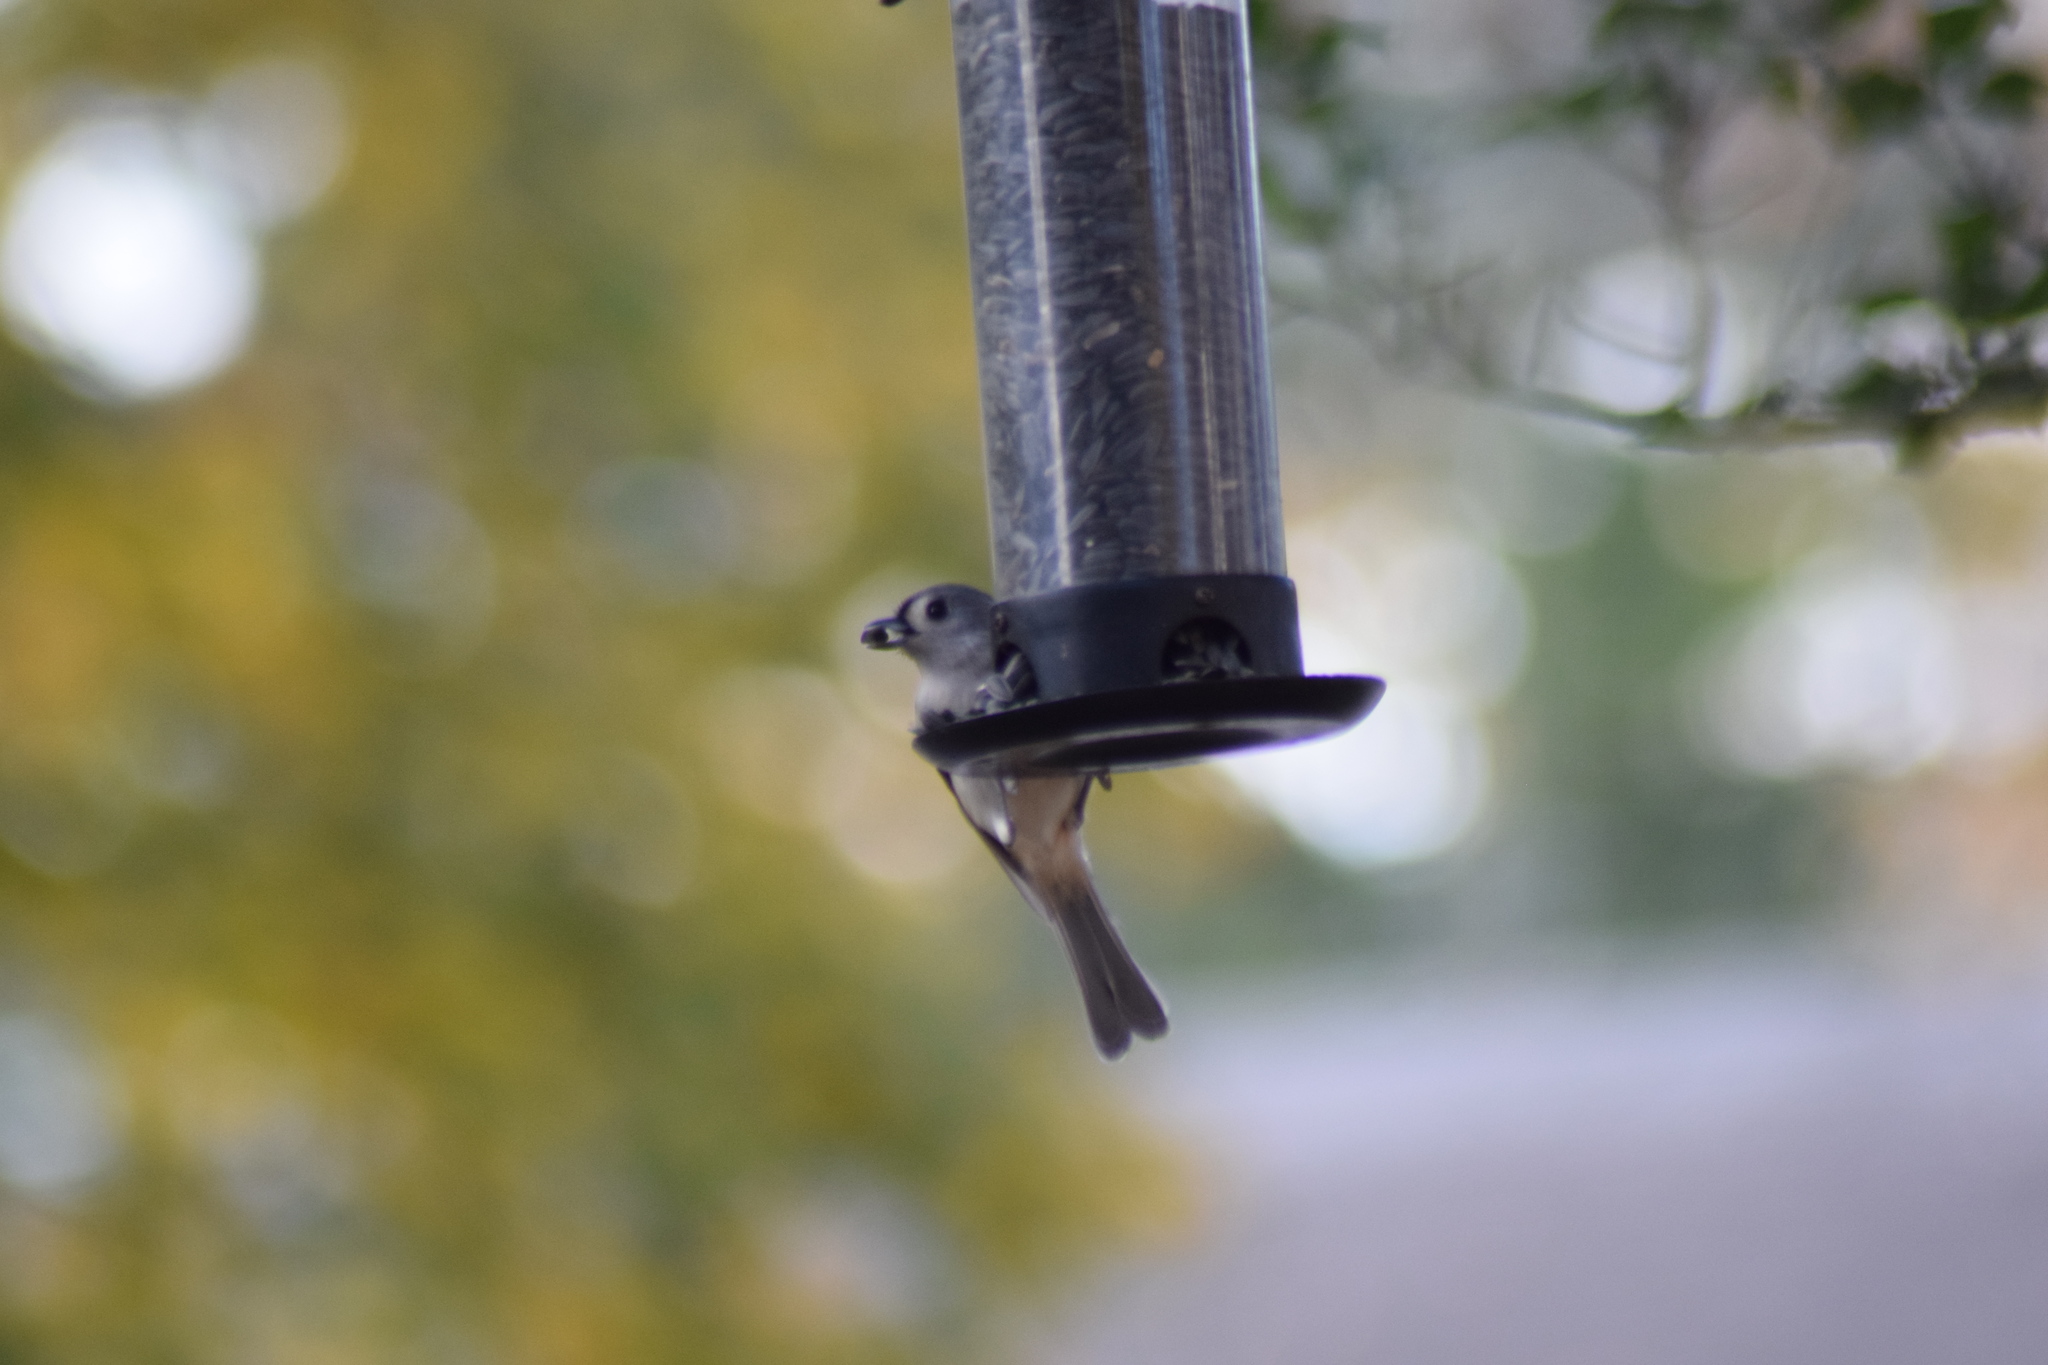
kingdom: Animalia
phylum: Chordata
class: Aves
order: Passeriformes
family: Paridae
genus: Baeolophus
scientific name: Baeolophus bicolor
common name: Tufted titmouse
